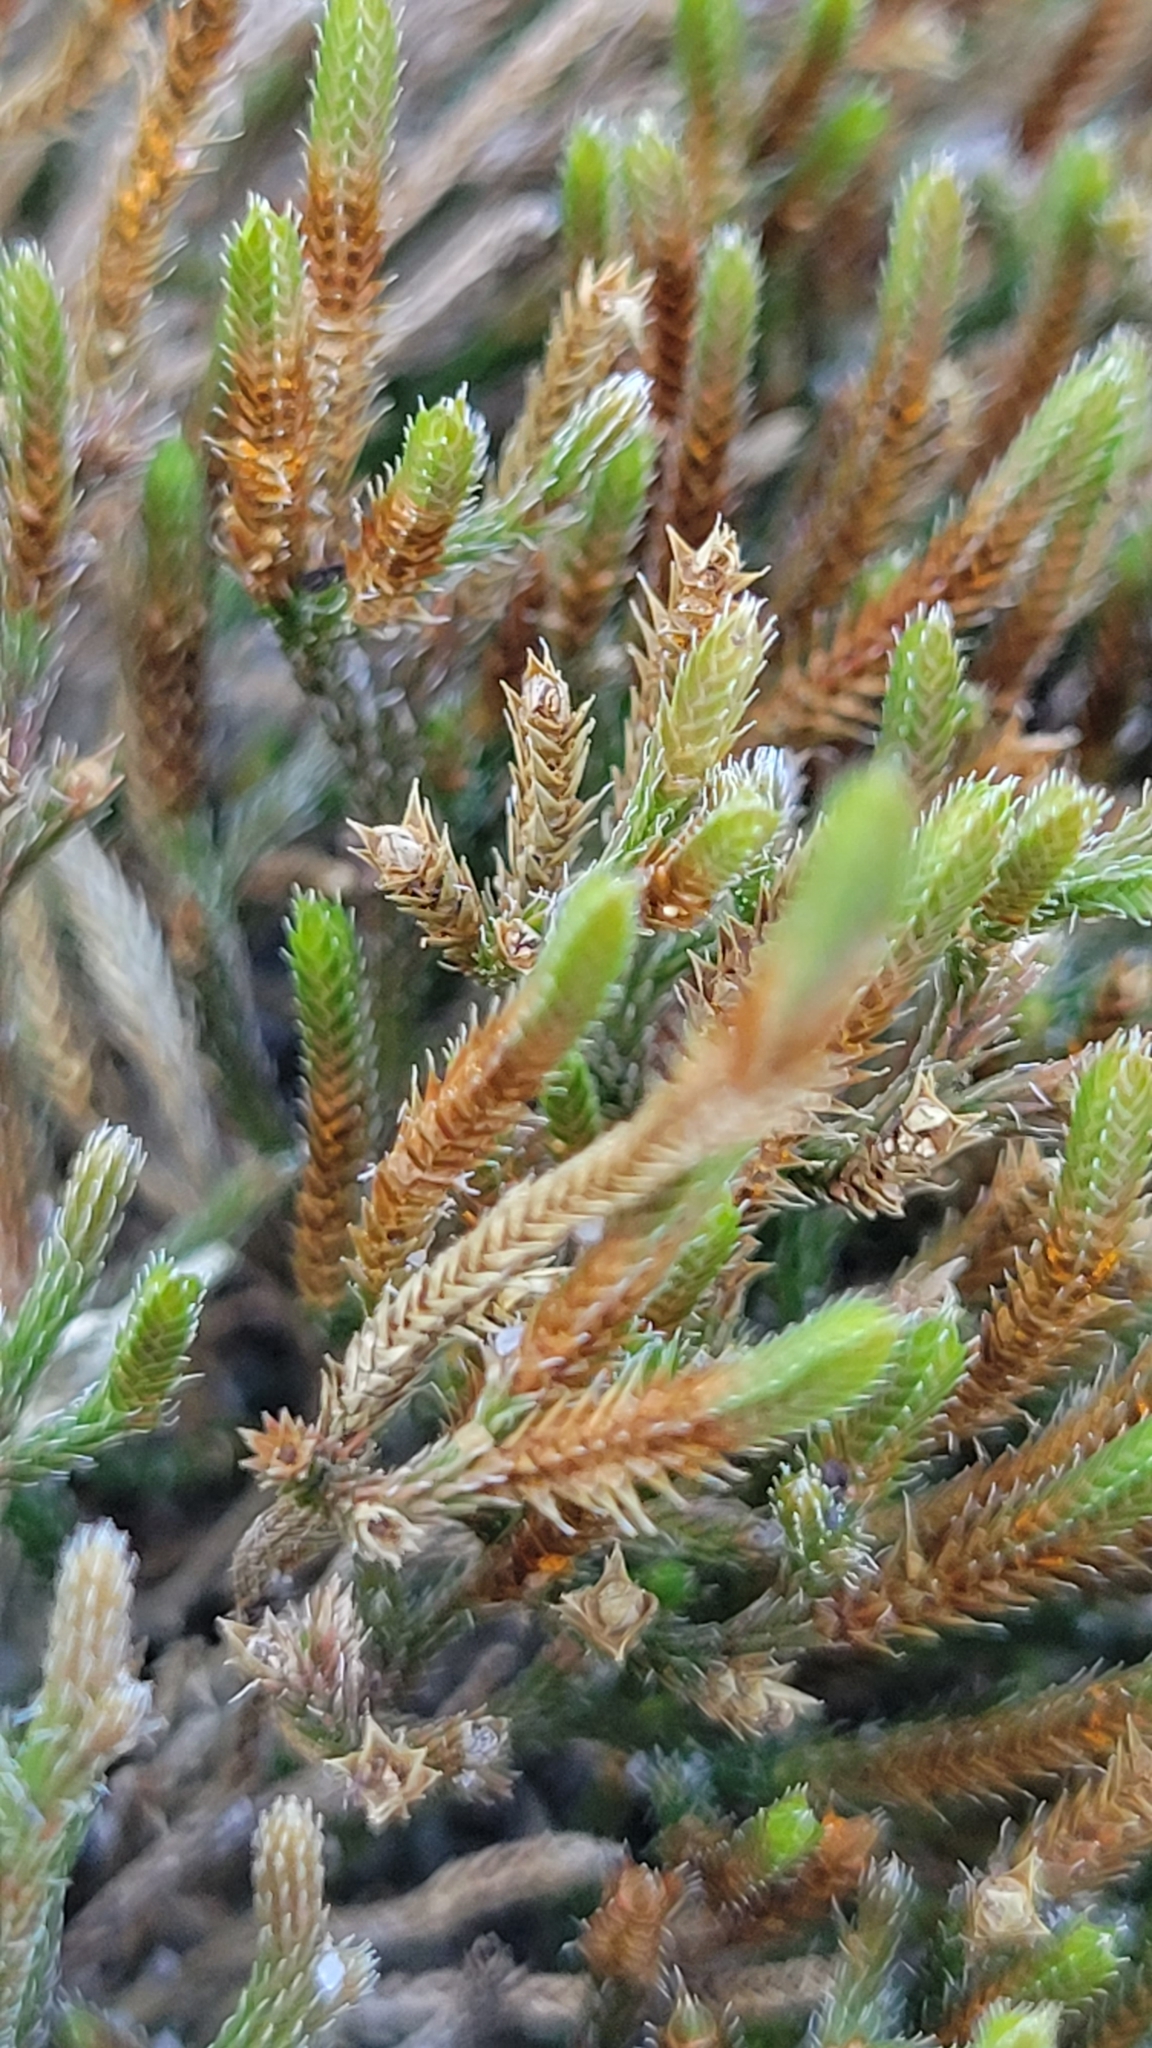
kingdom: Plantae
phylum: Tracheophyta
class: Lycopodiopsida
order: Selaginellales
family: Selaginellaceae
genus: Selaginella
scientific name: Selaginella arenicola
